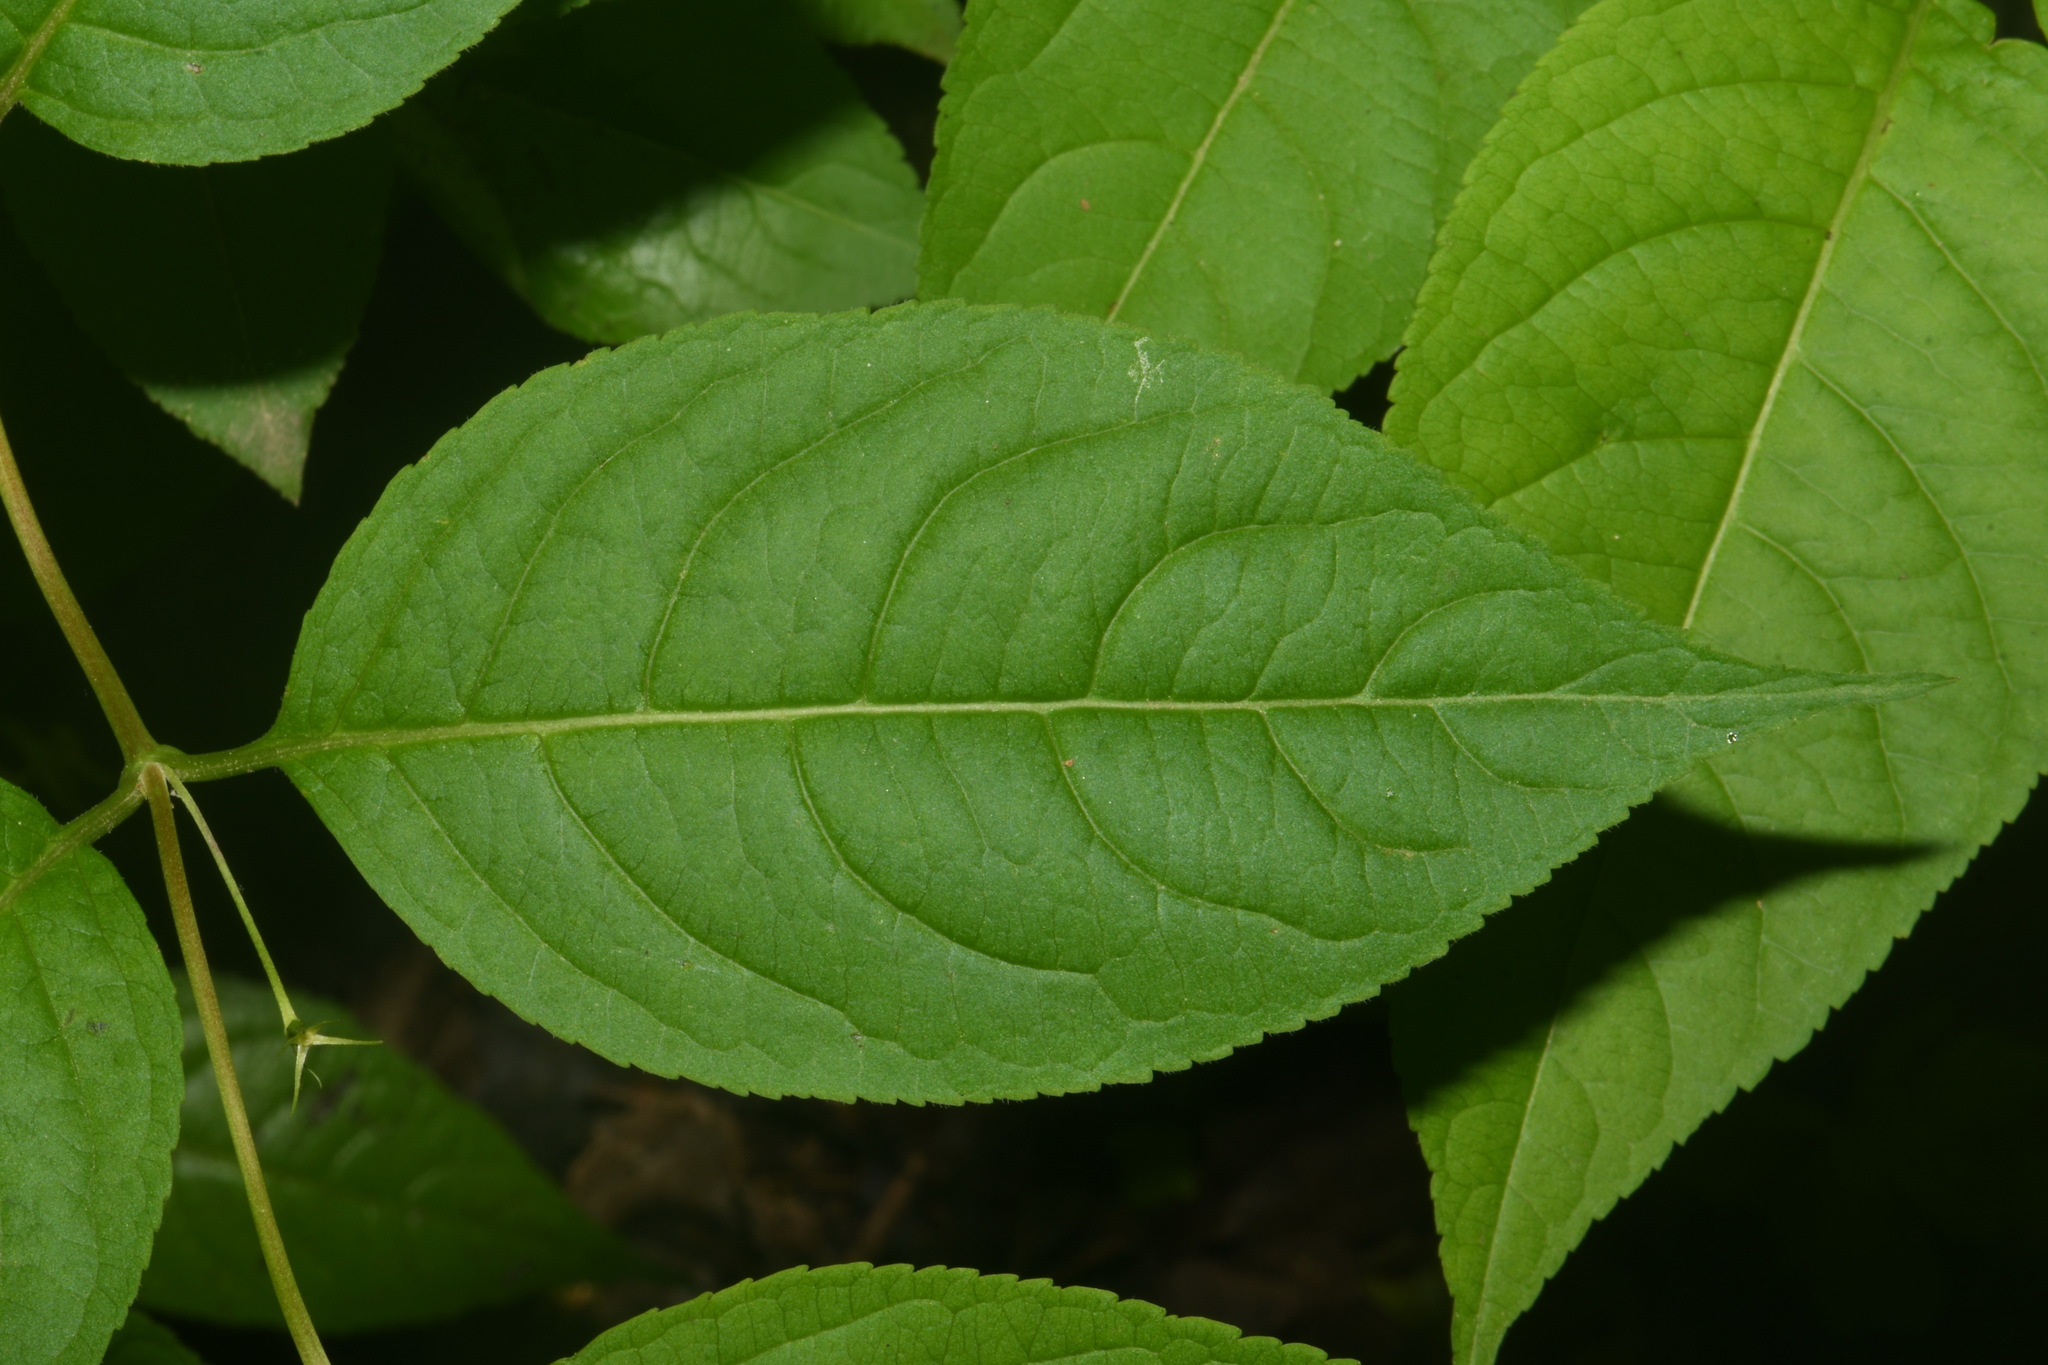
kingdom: Plantae
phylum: Tracheophyta
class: Magnoliopsida
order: Dipsacales
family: Caprifoliaceae
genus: Diervilla
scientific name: Diervilla lonicera
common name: Bush-honeysuckle
